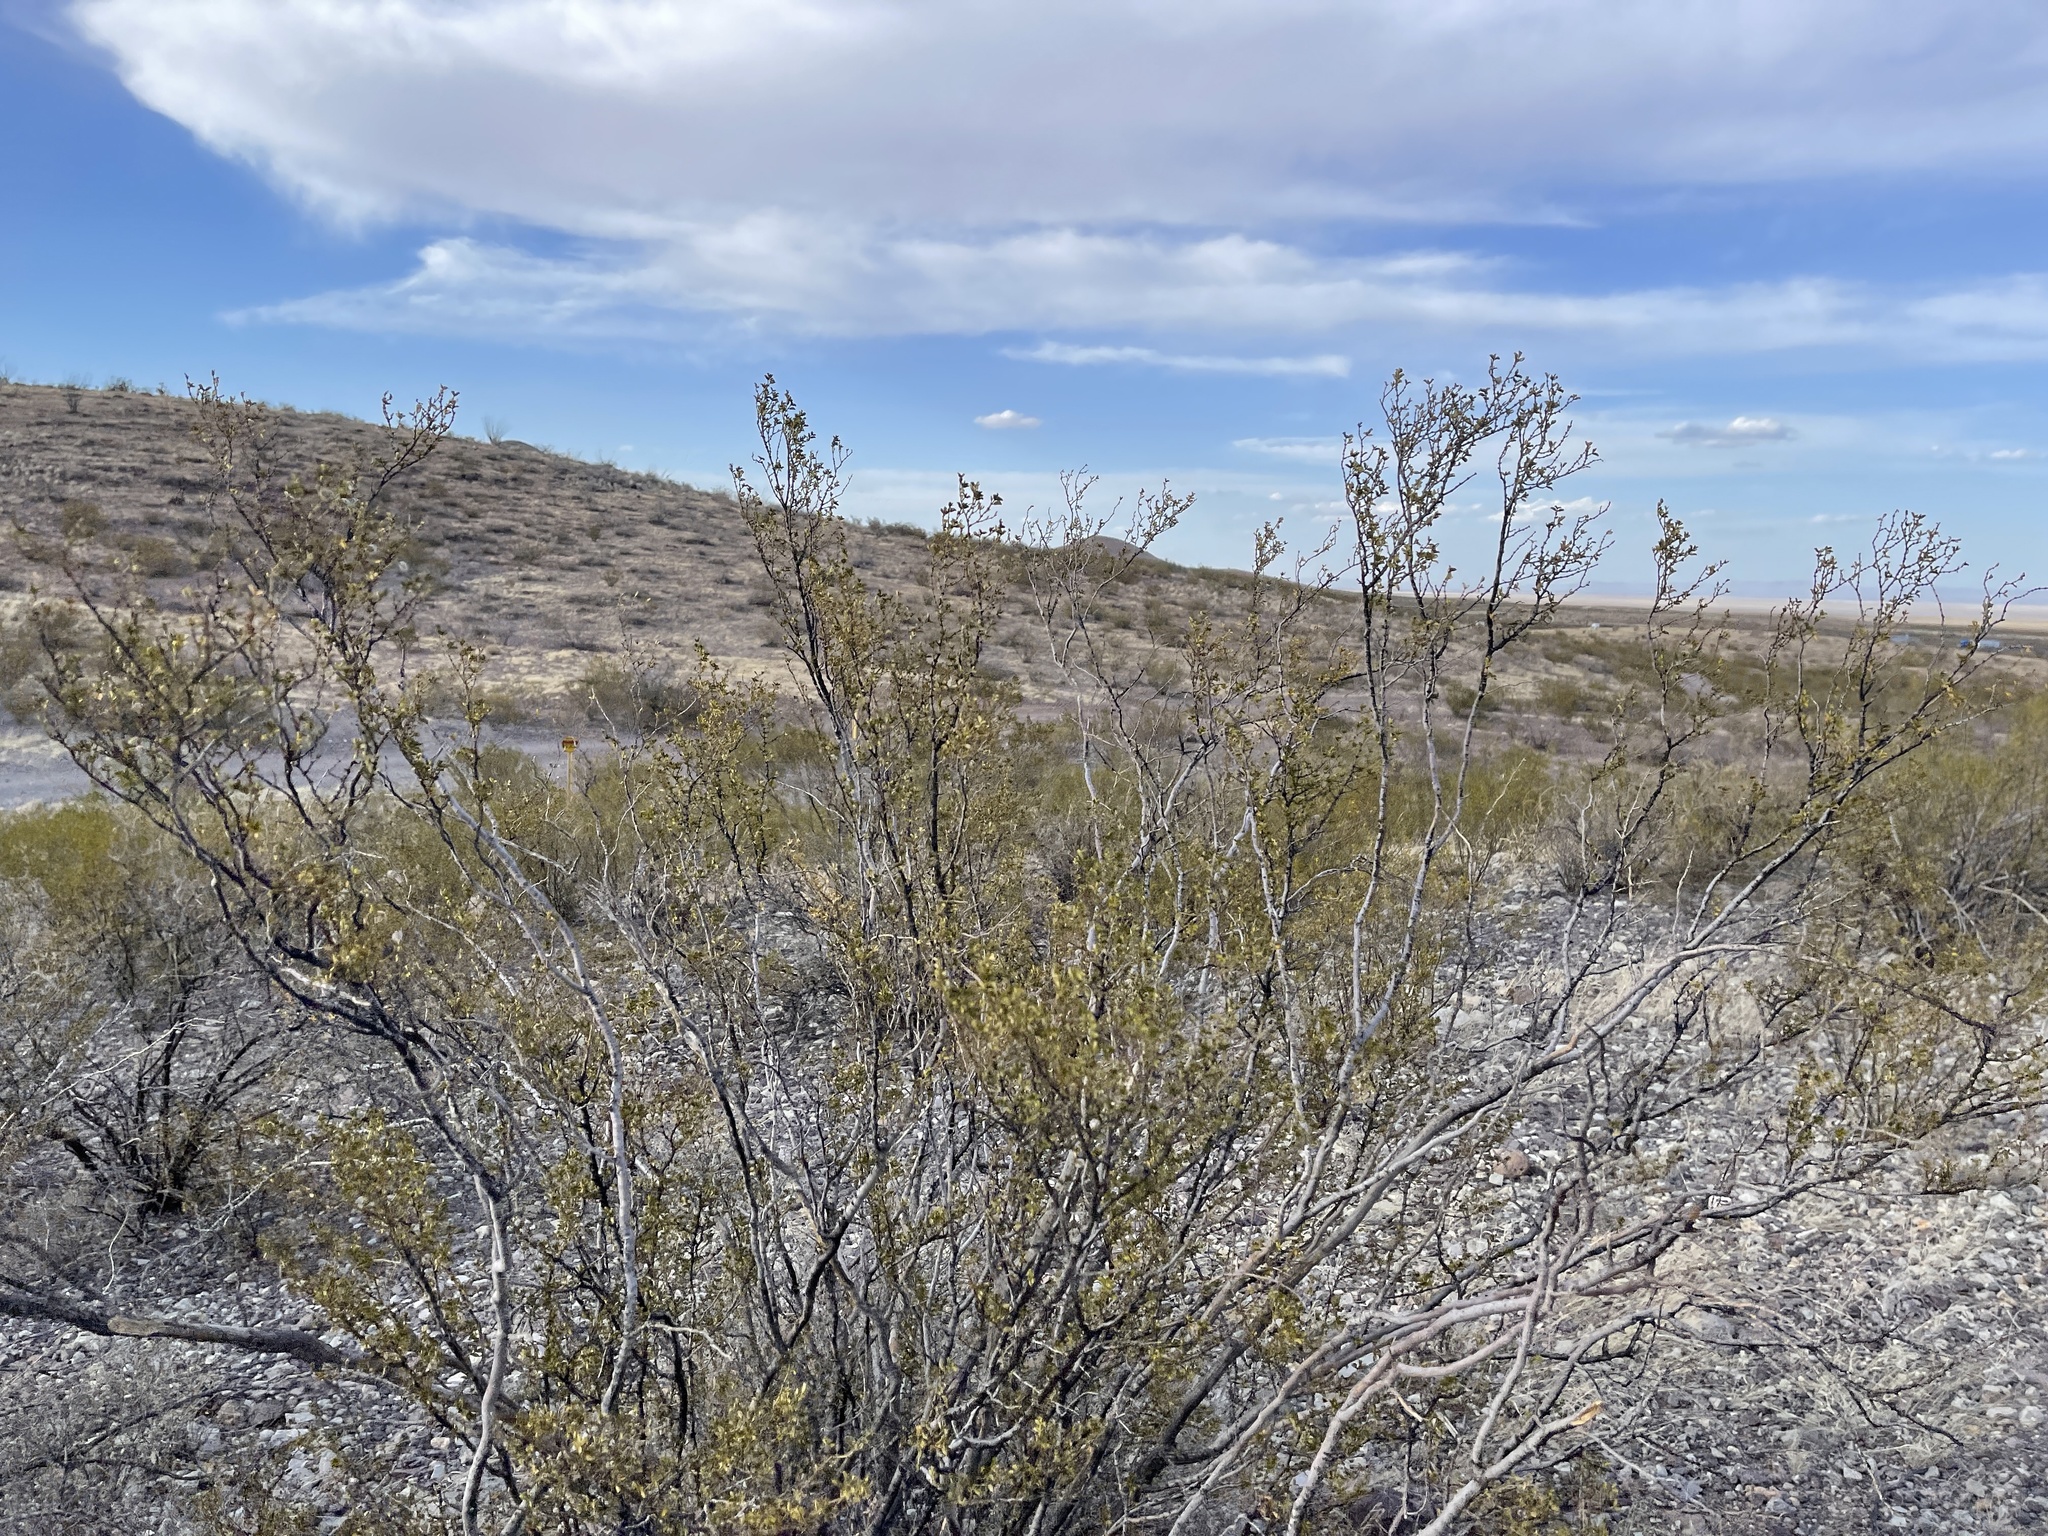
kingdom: Plantae
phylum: Tracheophyta
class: Magnoliopsida
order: Zygophyllales
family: Zygophyllaceae
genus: Larrea
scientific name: Larrea tridentata
